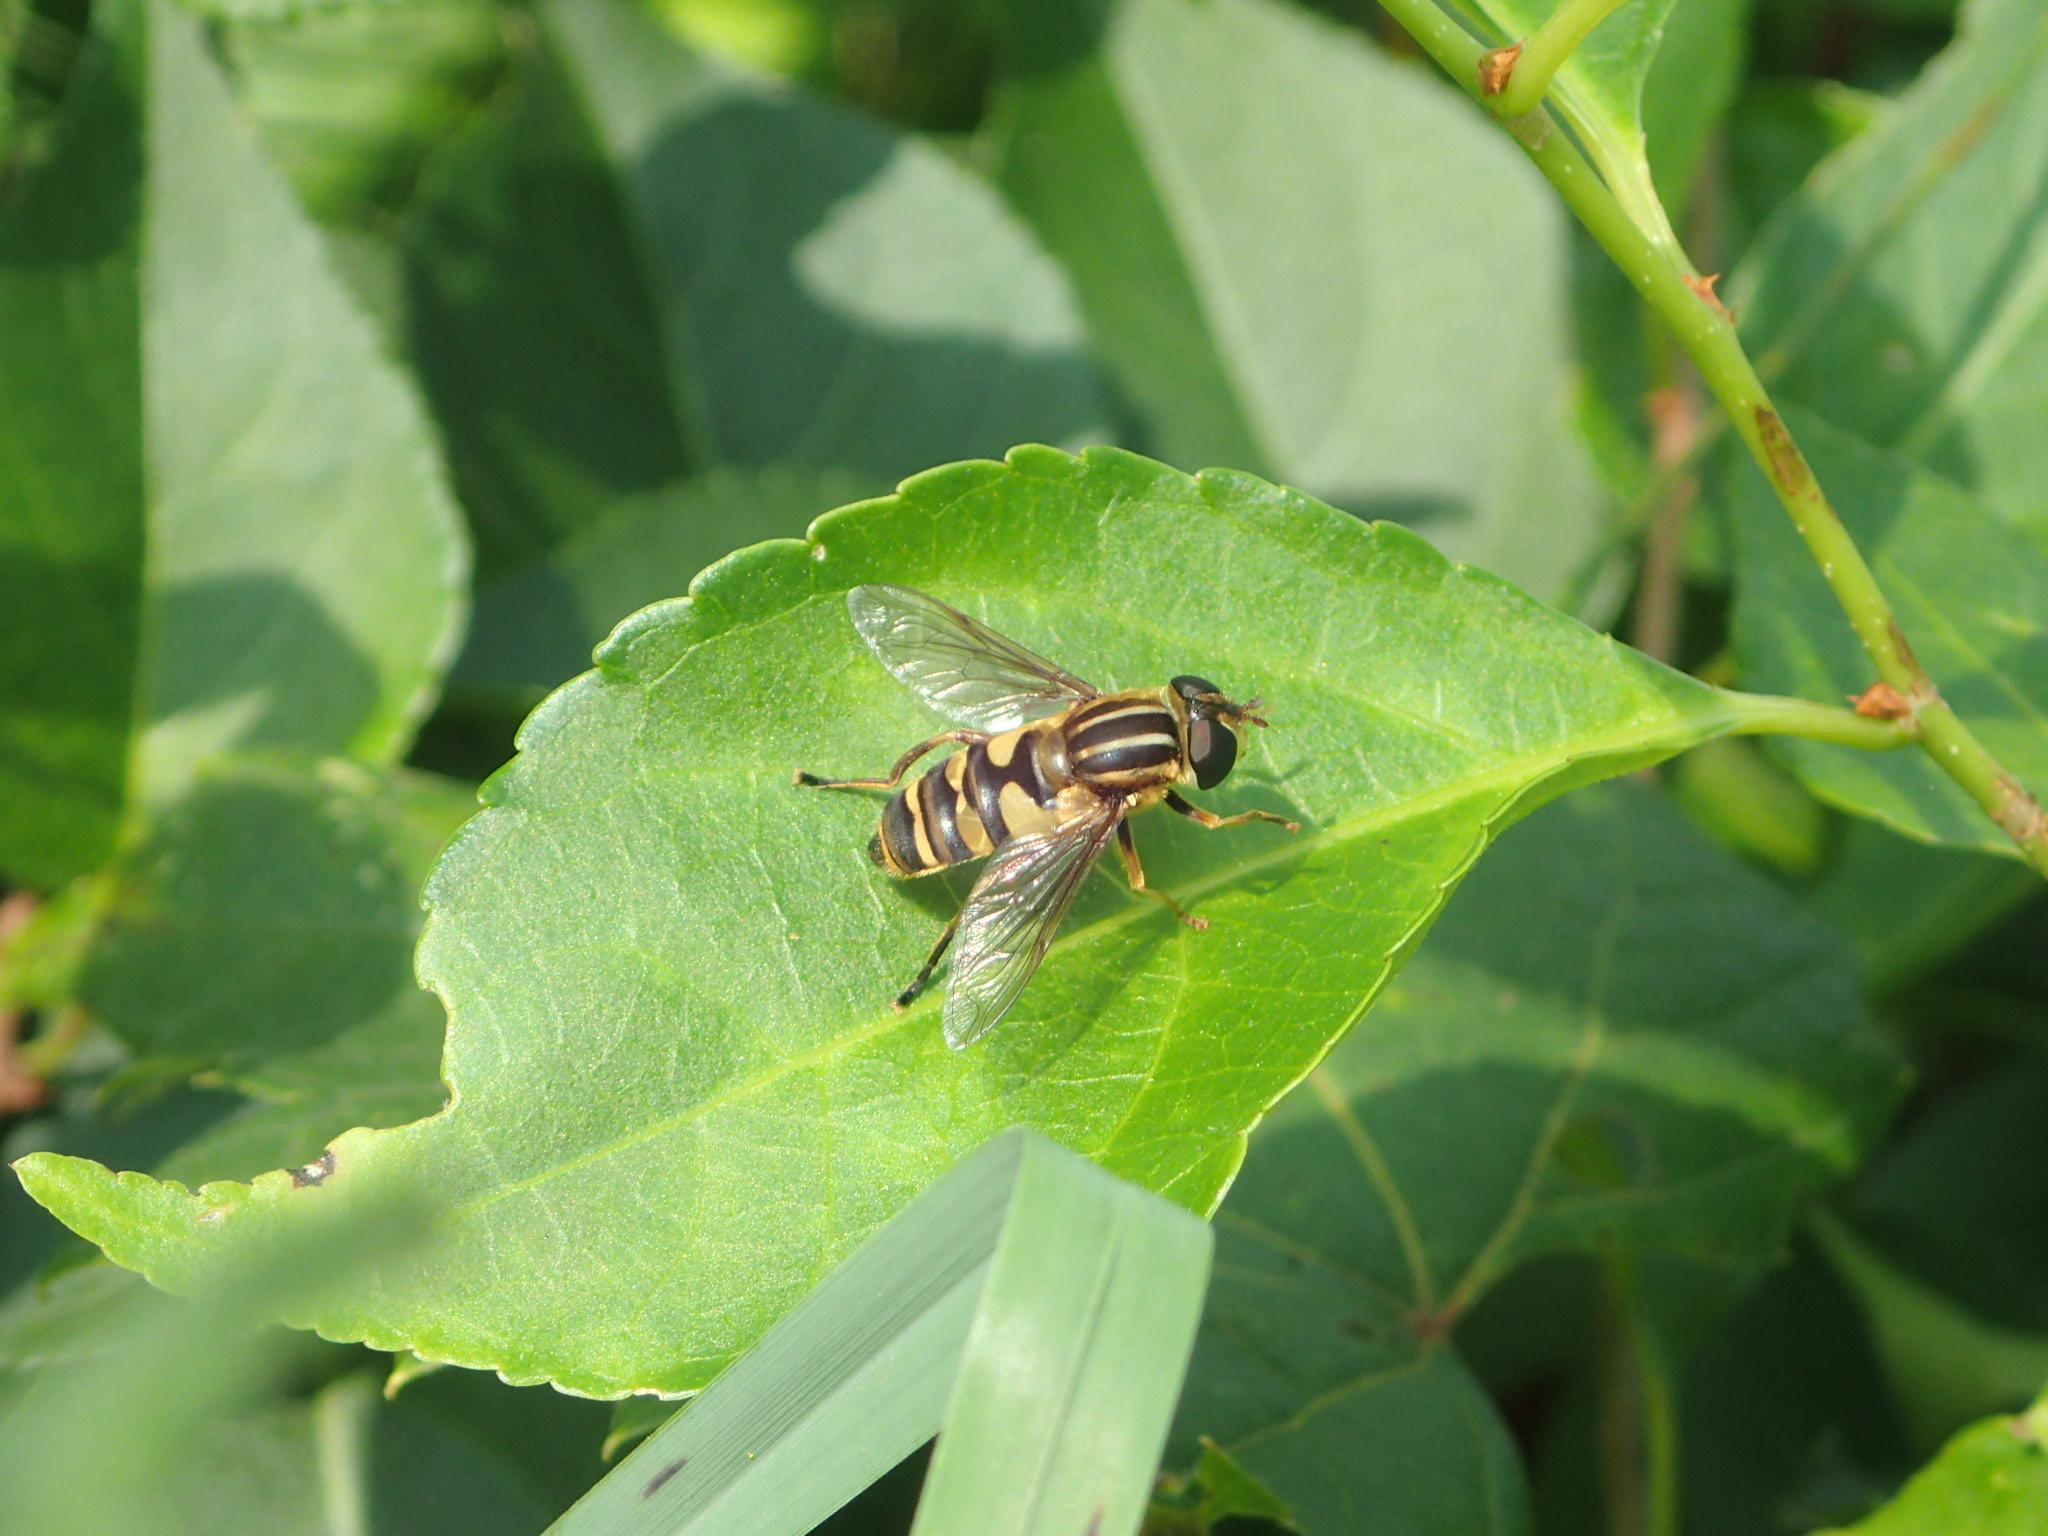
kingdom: Animalia
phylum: Arthropoda
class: Insecta
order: Diptera
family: Syrphidae
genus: Helophilus
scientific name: Helophilus fasciatus
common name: Narrow-headed marsh fly
